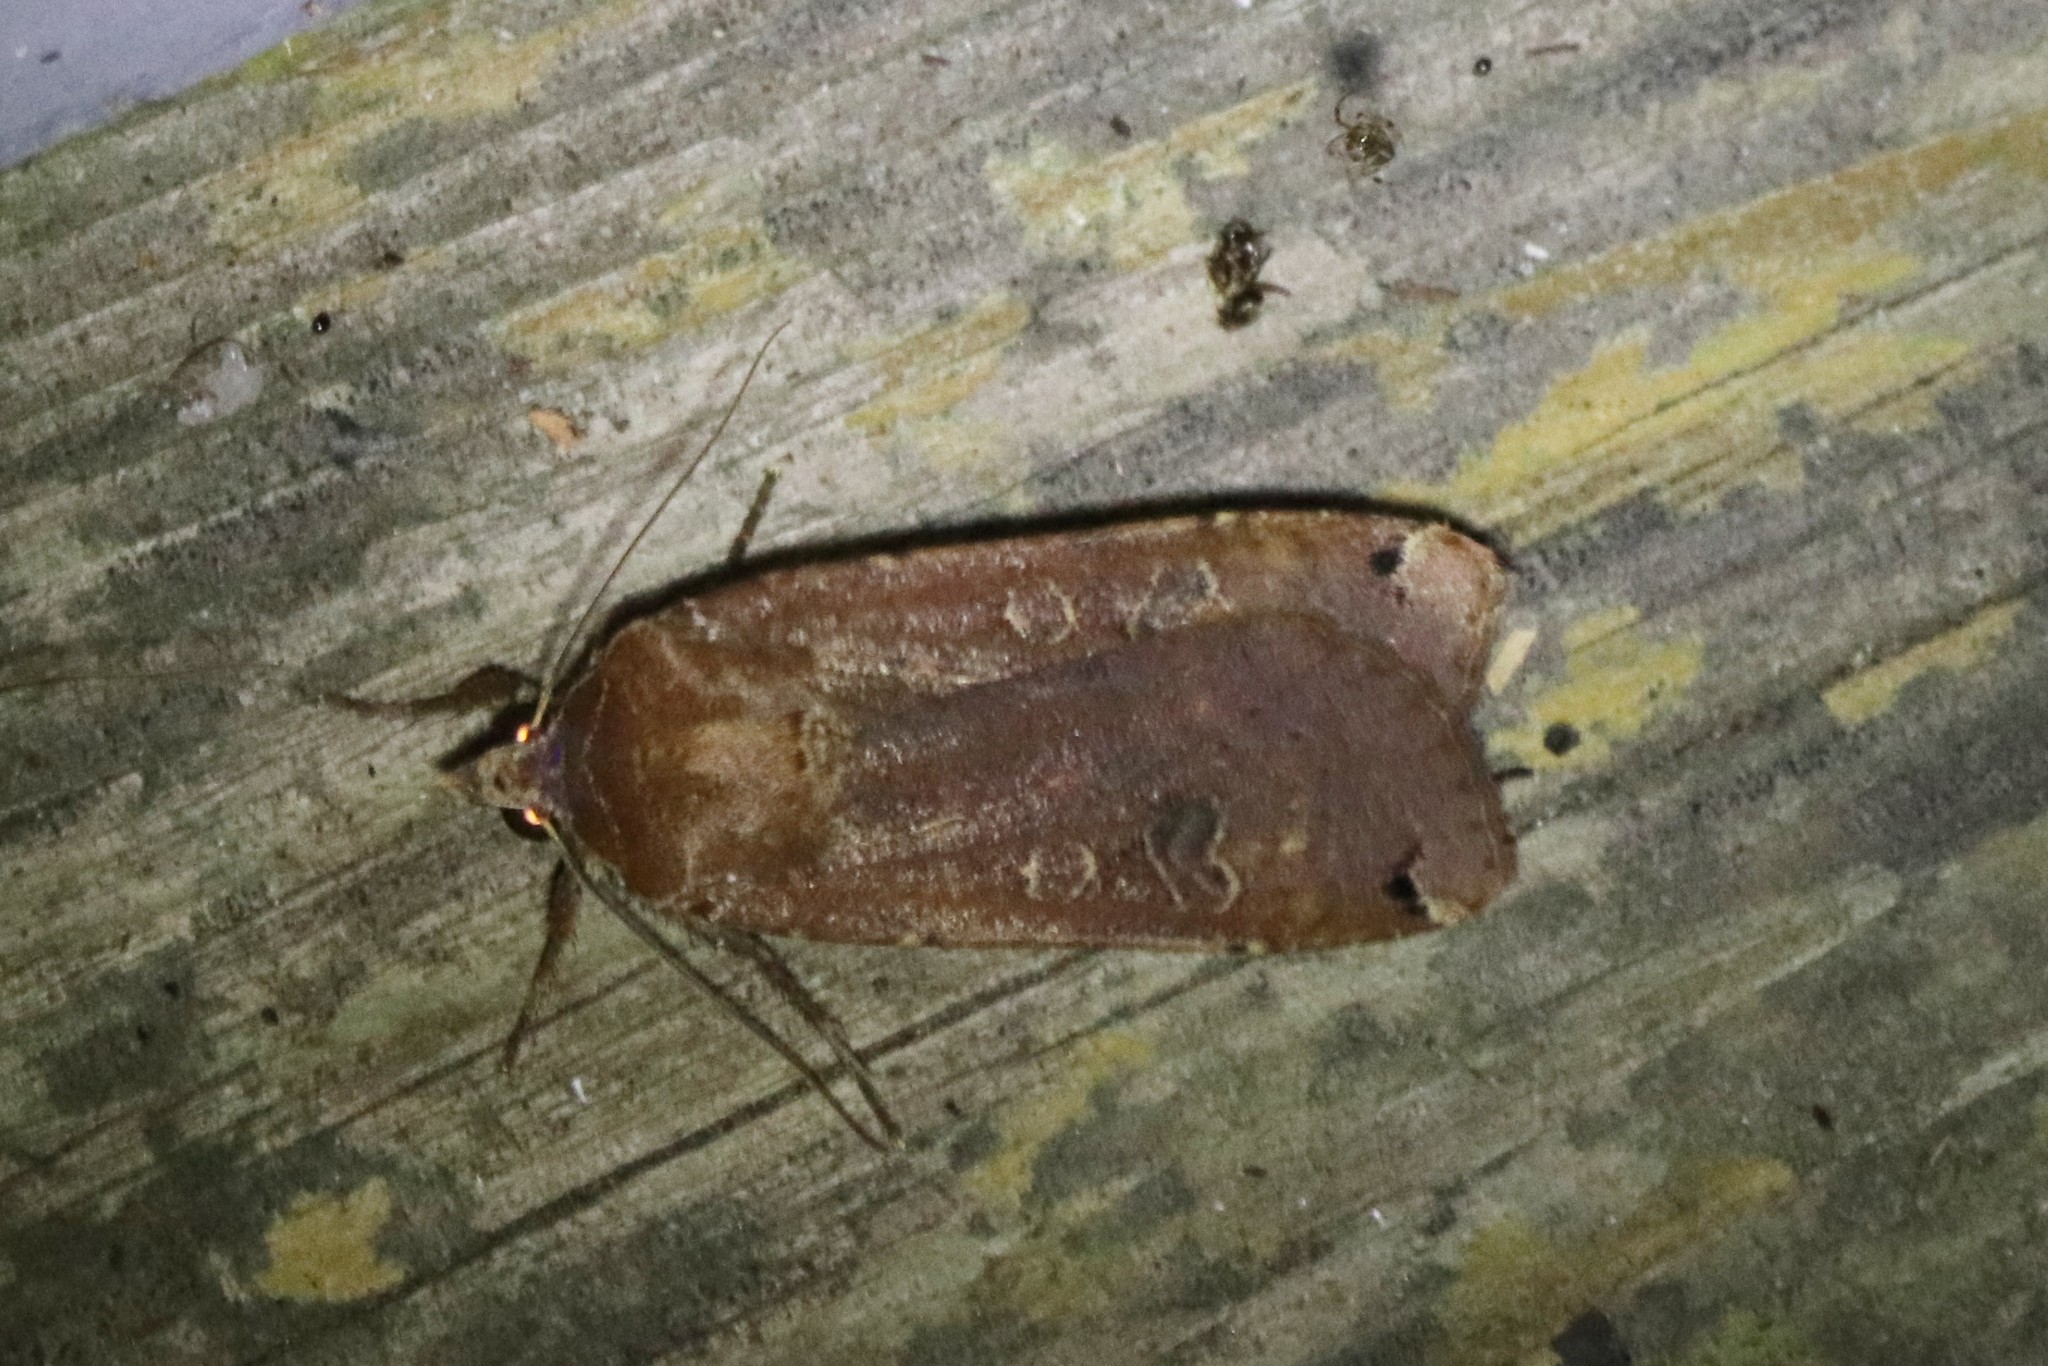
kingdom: Animalia
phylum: Arthropoda
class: Insecta
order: Lepidoptera
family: Noctuidae
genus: Noctua
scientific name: Noctua pronuba
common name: Large yellow underwing
